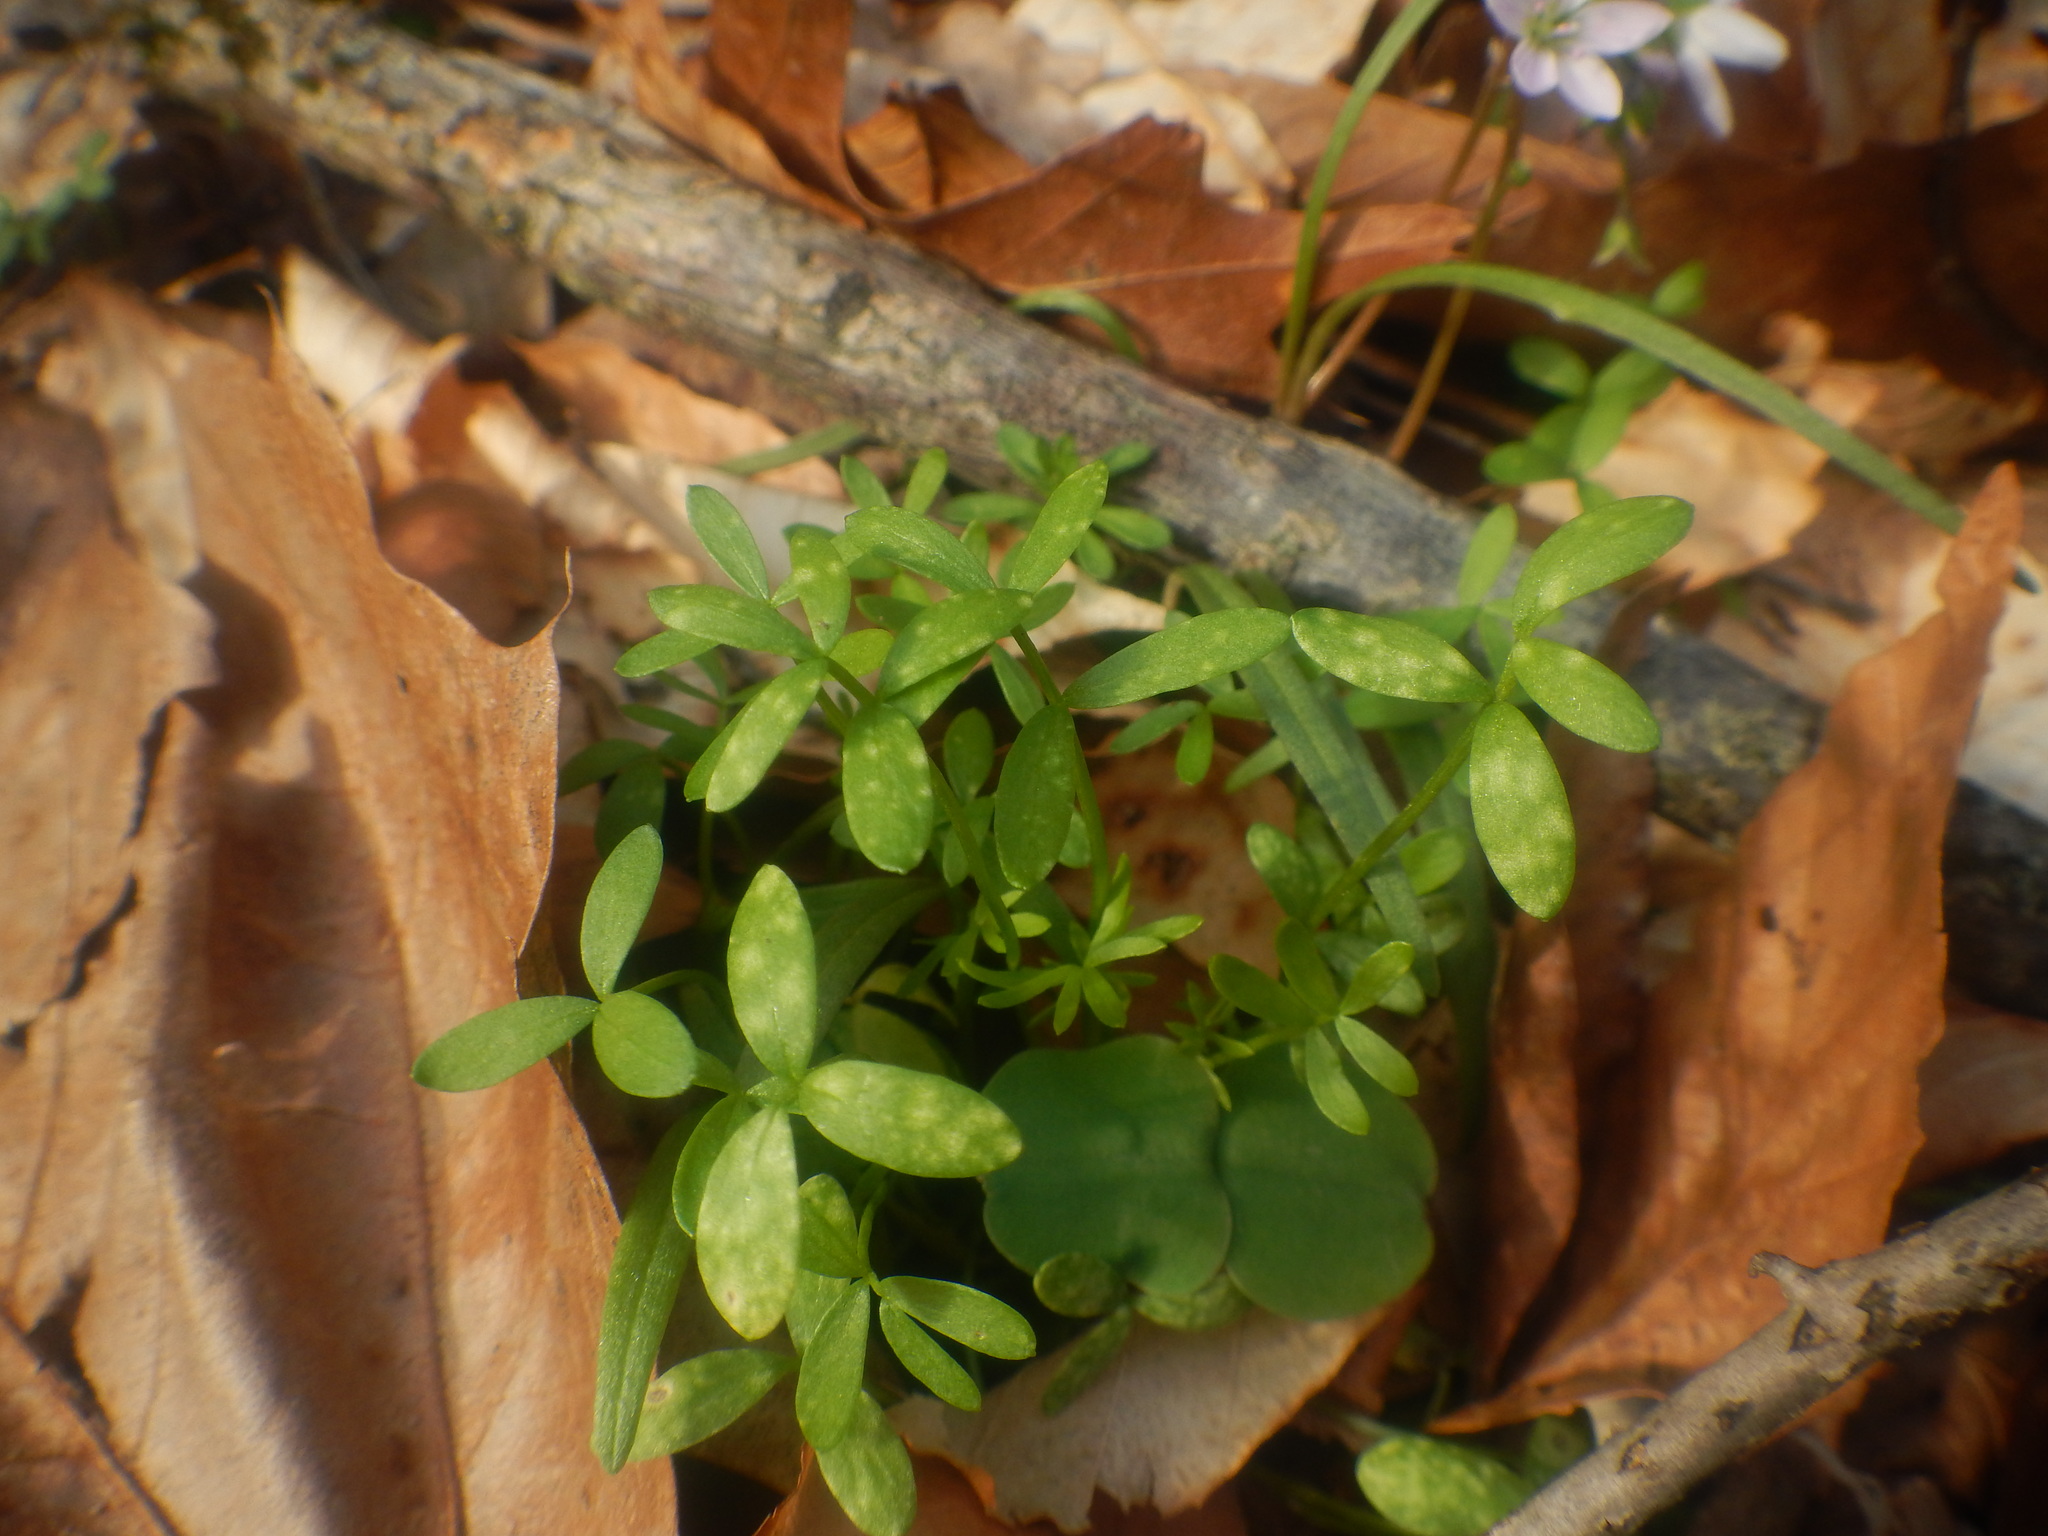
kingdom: Plantae
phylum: Tracheophyta
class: Magnoliopsida
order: Brassicales
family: Limnanthaceae
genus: Floerkea
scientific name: Floerkea proserpinacoides
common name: False mermaid
